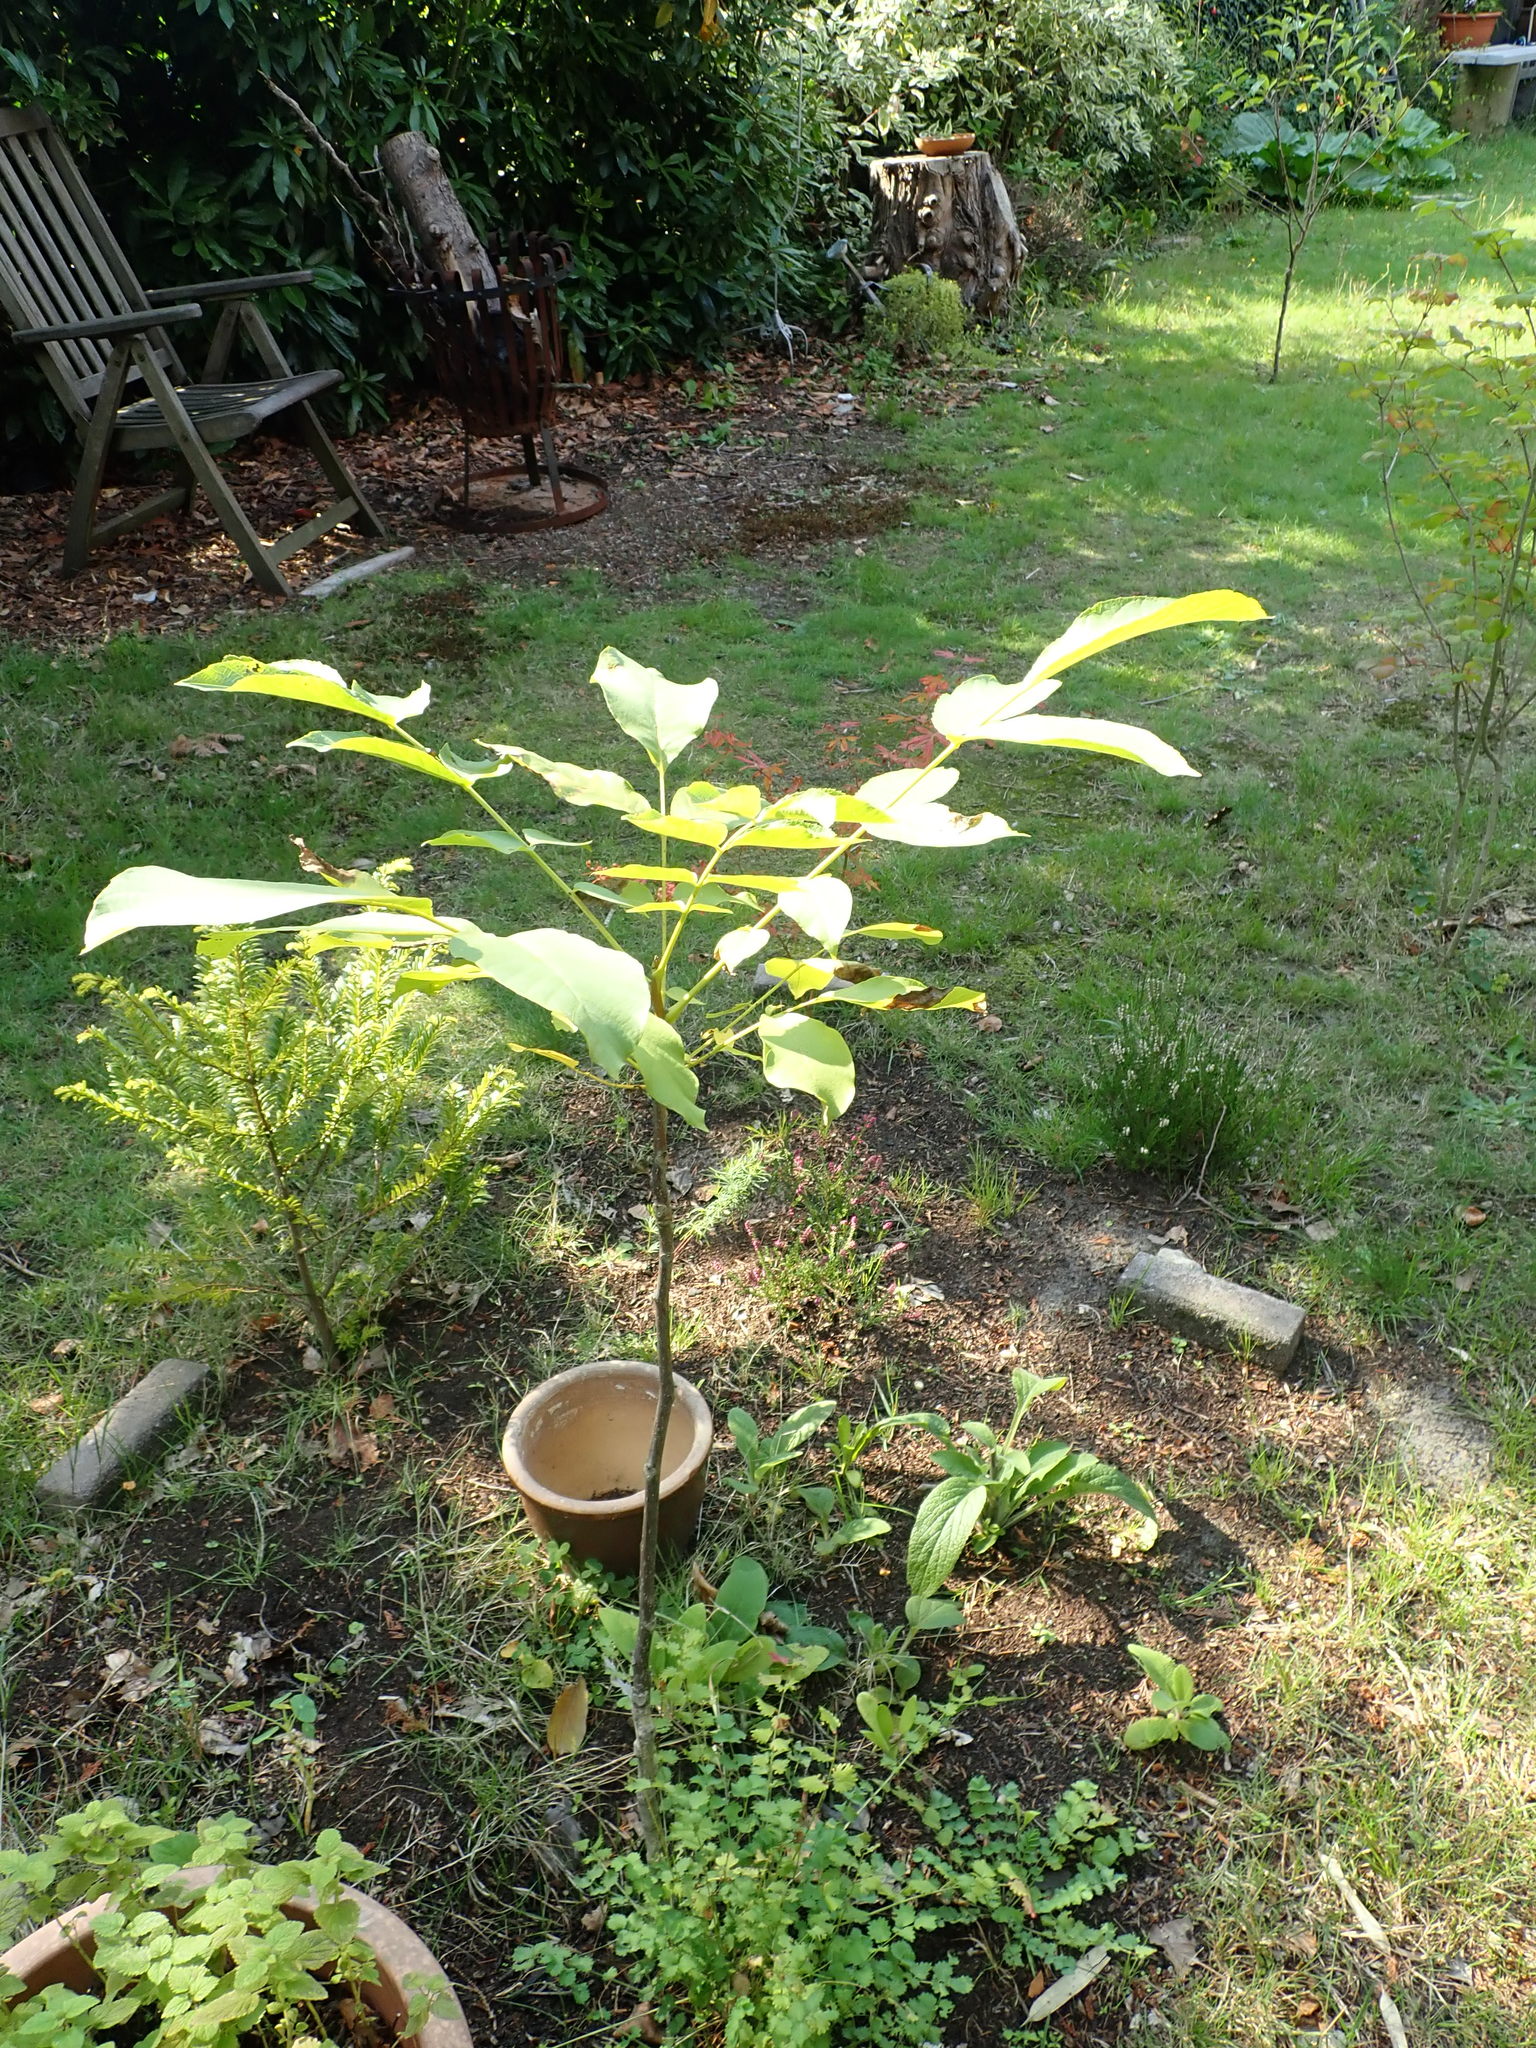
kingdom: Plantae
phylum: Tracheophyta
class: Magnoliopsida
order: Fagales
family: Juglandaceae
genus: Juglans
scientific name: Juglans regia
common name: Walnut
